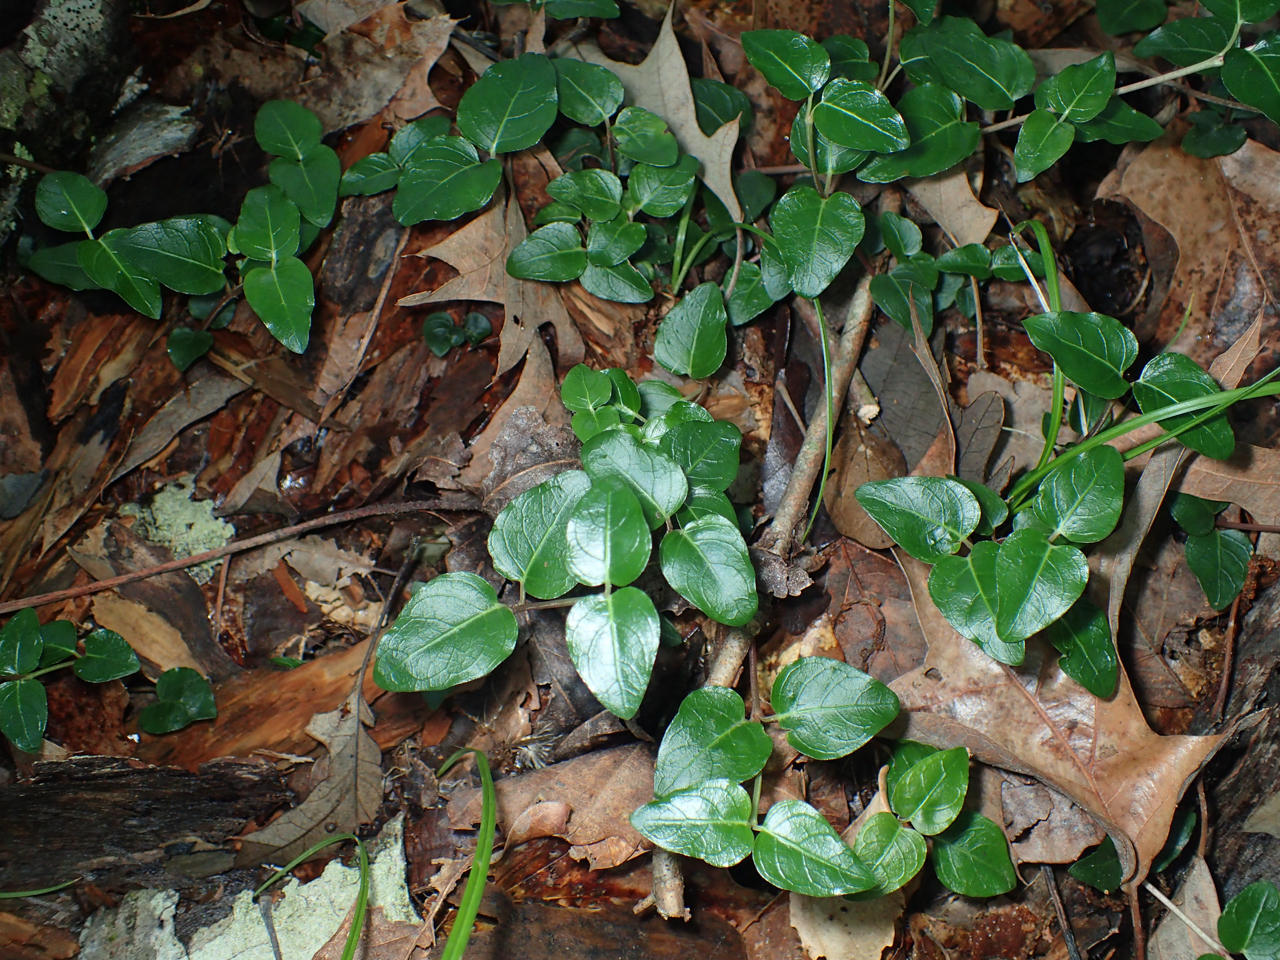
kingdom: Plantae
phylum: Tracheophyta
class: Magnoliopsida
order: Gentianales
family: Rubiaceae
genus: Mitchella
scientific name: Mitchella repens
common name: Partridge-berry
